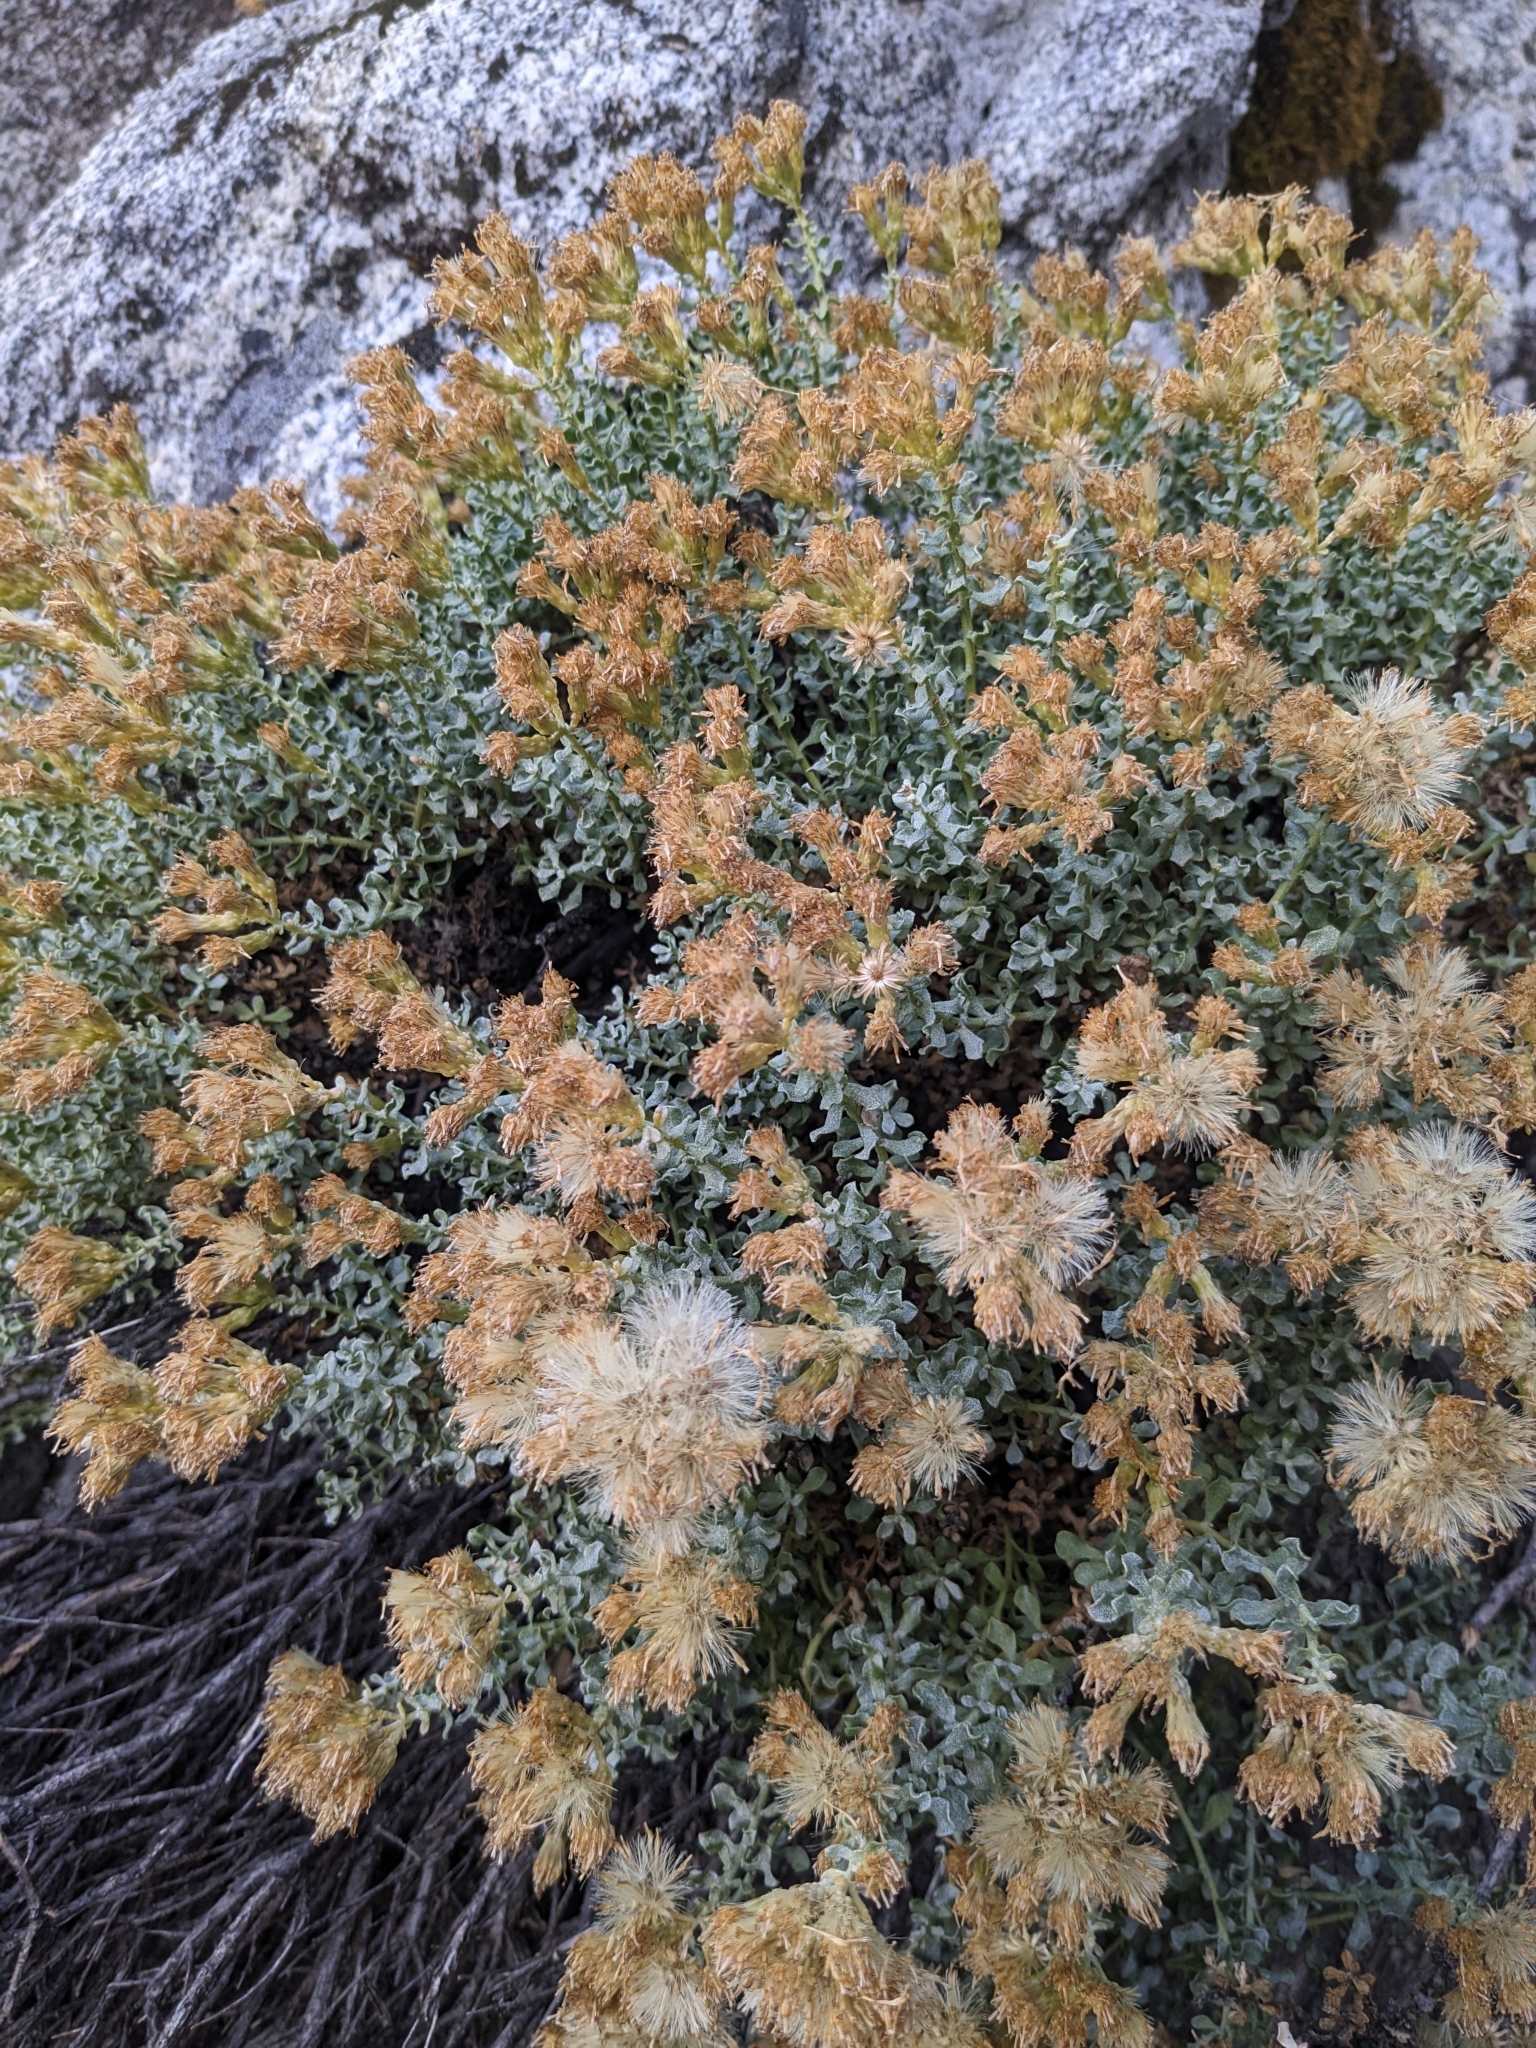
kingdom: Plantae
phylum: Tracheophyta
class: Magnoliopsida
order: Asterales
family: Asteraceae
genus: Ericameria
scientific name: Ericameria cuneata
